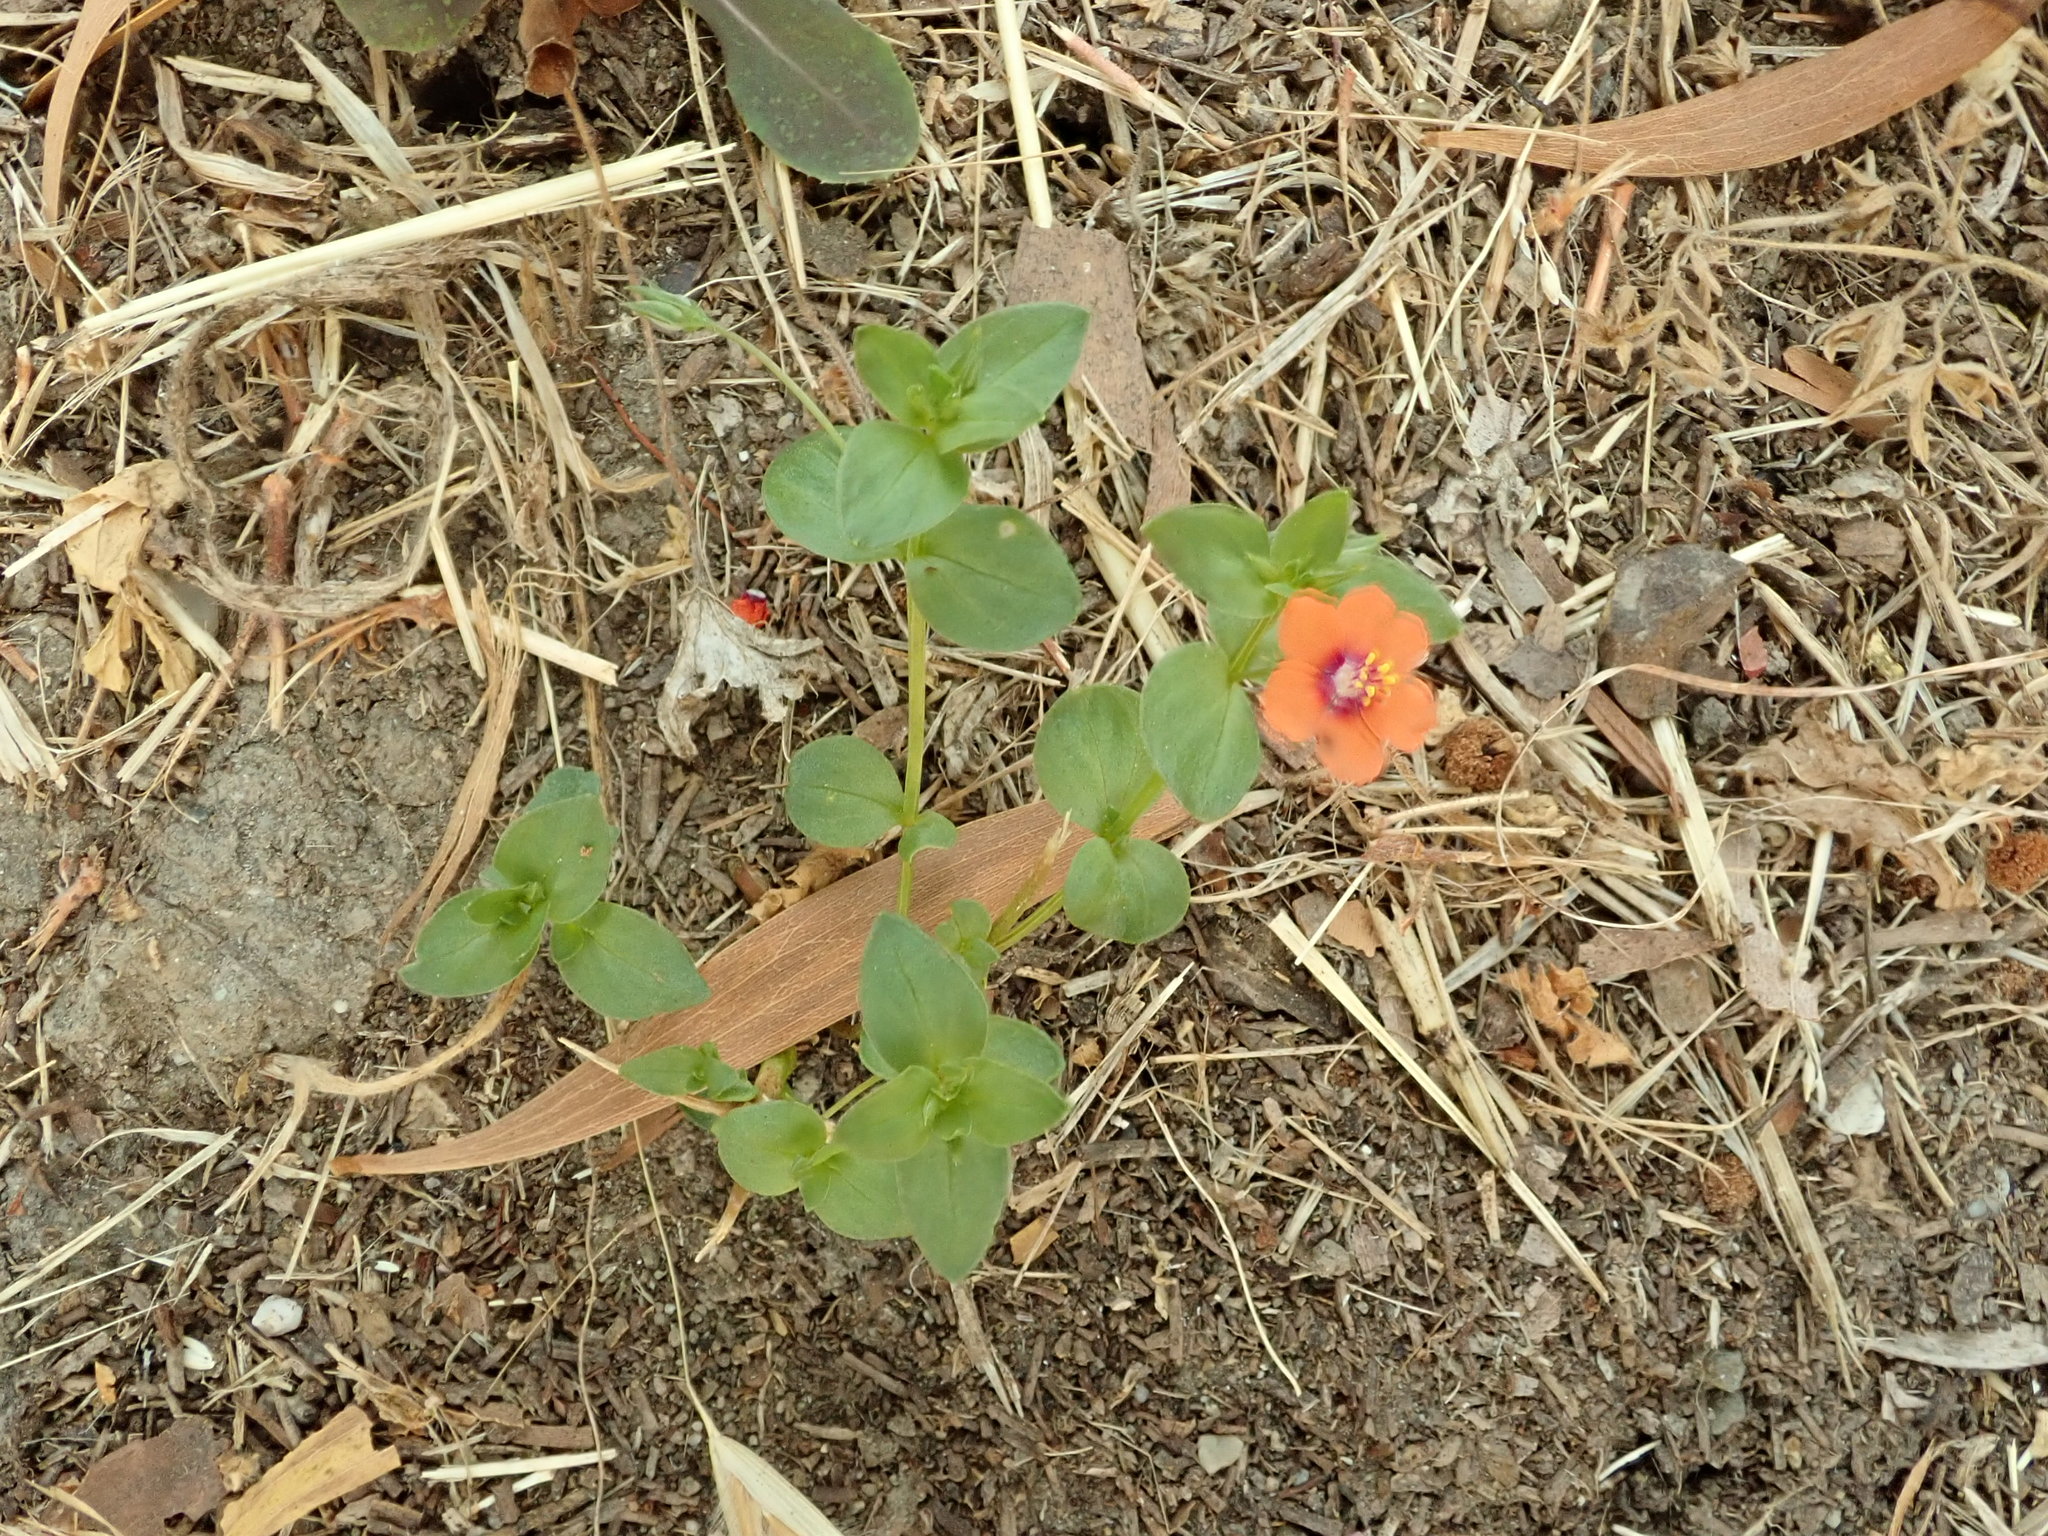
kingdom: Plantae
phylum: Tracheophyta
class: Magnoliopsida
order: Ericales
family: Primulaceae
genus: Lysimachia
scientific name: Lysimachia arvensis
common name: Scarlet pimpernel
